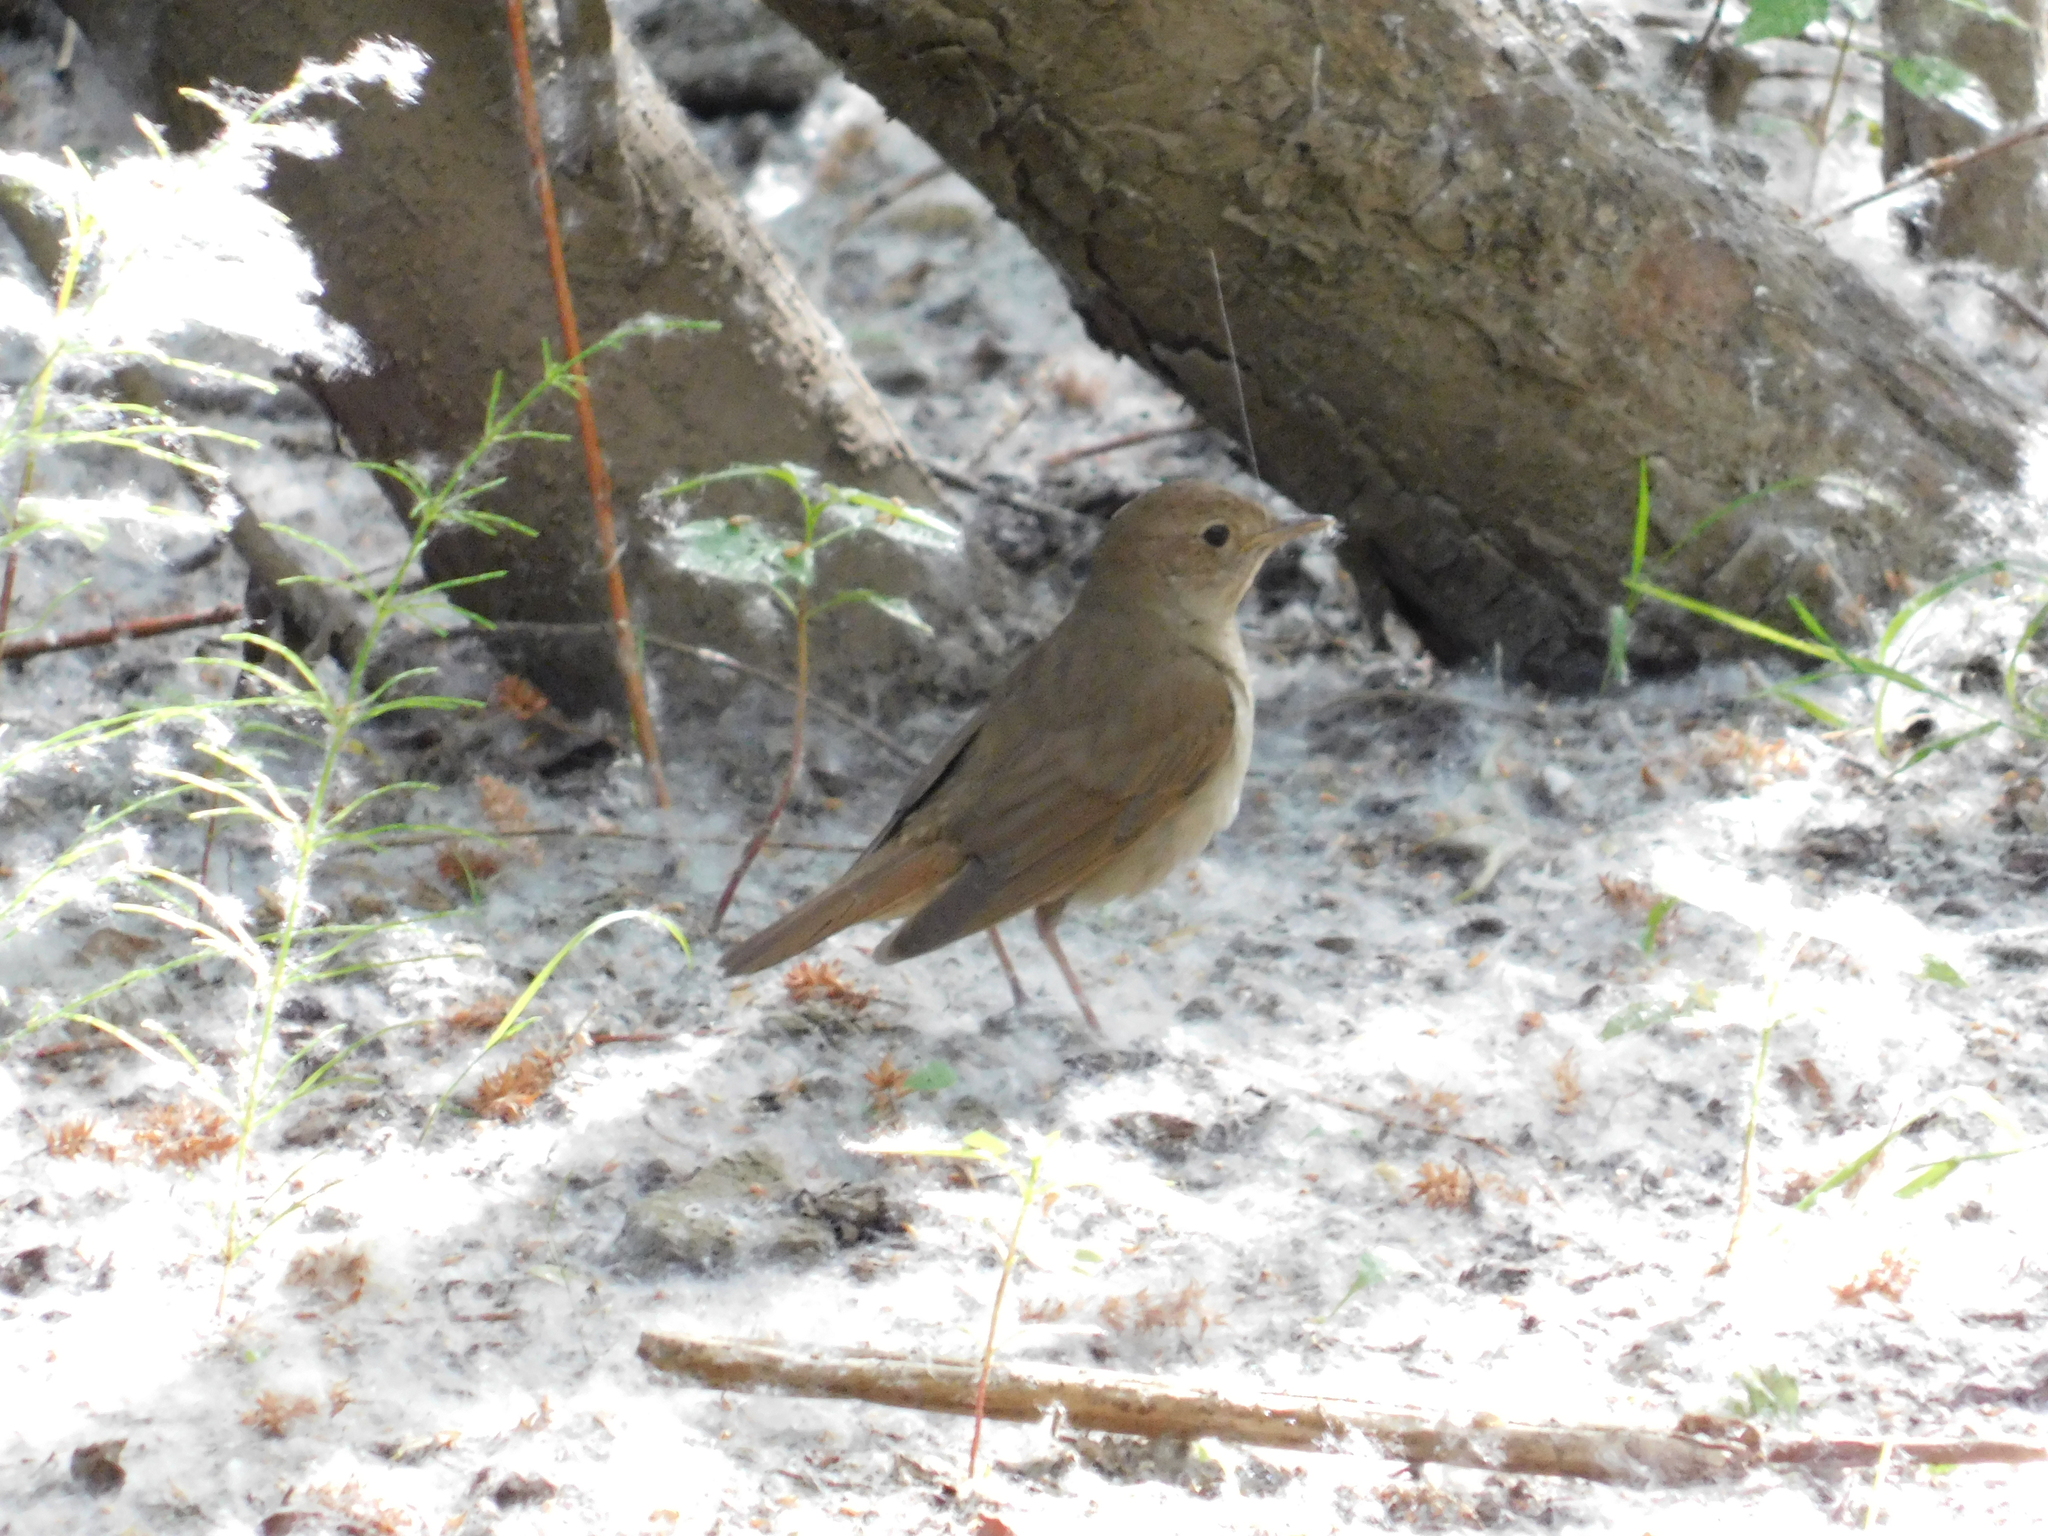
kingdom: Animalia
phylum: Chordata
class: Aves
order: Passeriformes
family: Muscicapidae
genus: Luscinia
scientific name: Luscinia luscinia
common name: Thrush nightingale
